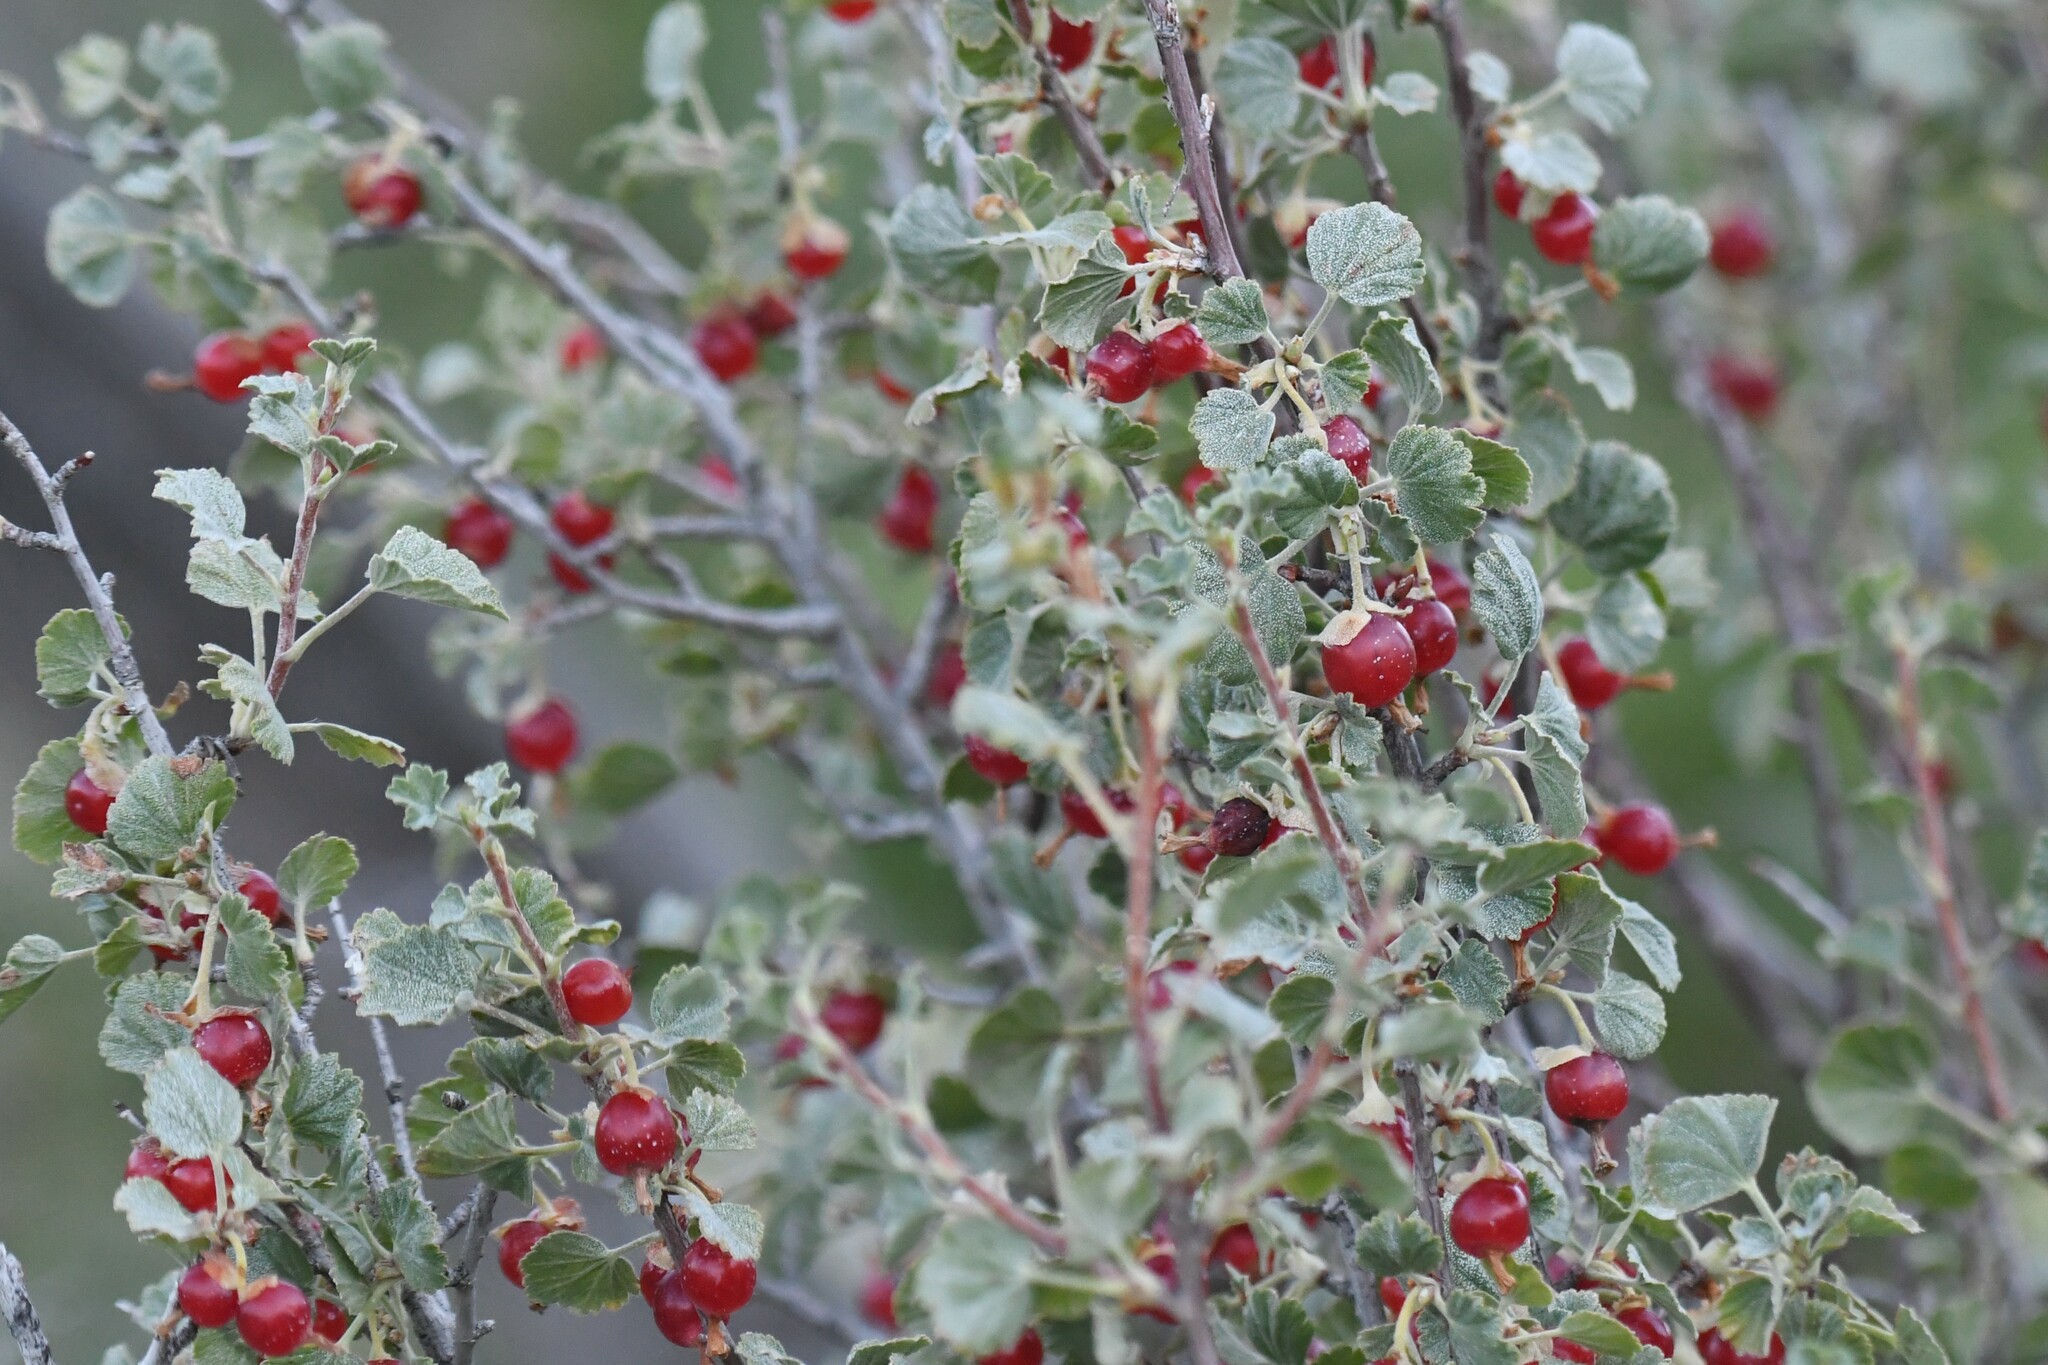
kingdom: Plantae
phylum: Tracheophyta
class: Magnoliopsida
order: Saxifragales
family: Grossulariaceae
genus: Ribes
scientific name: Ribes cereum
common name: Wax currant
